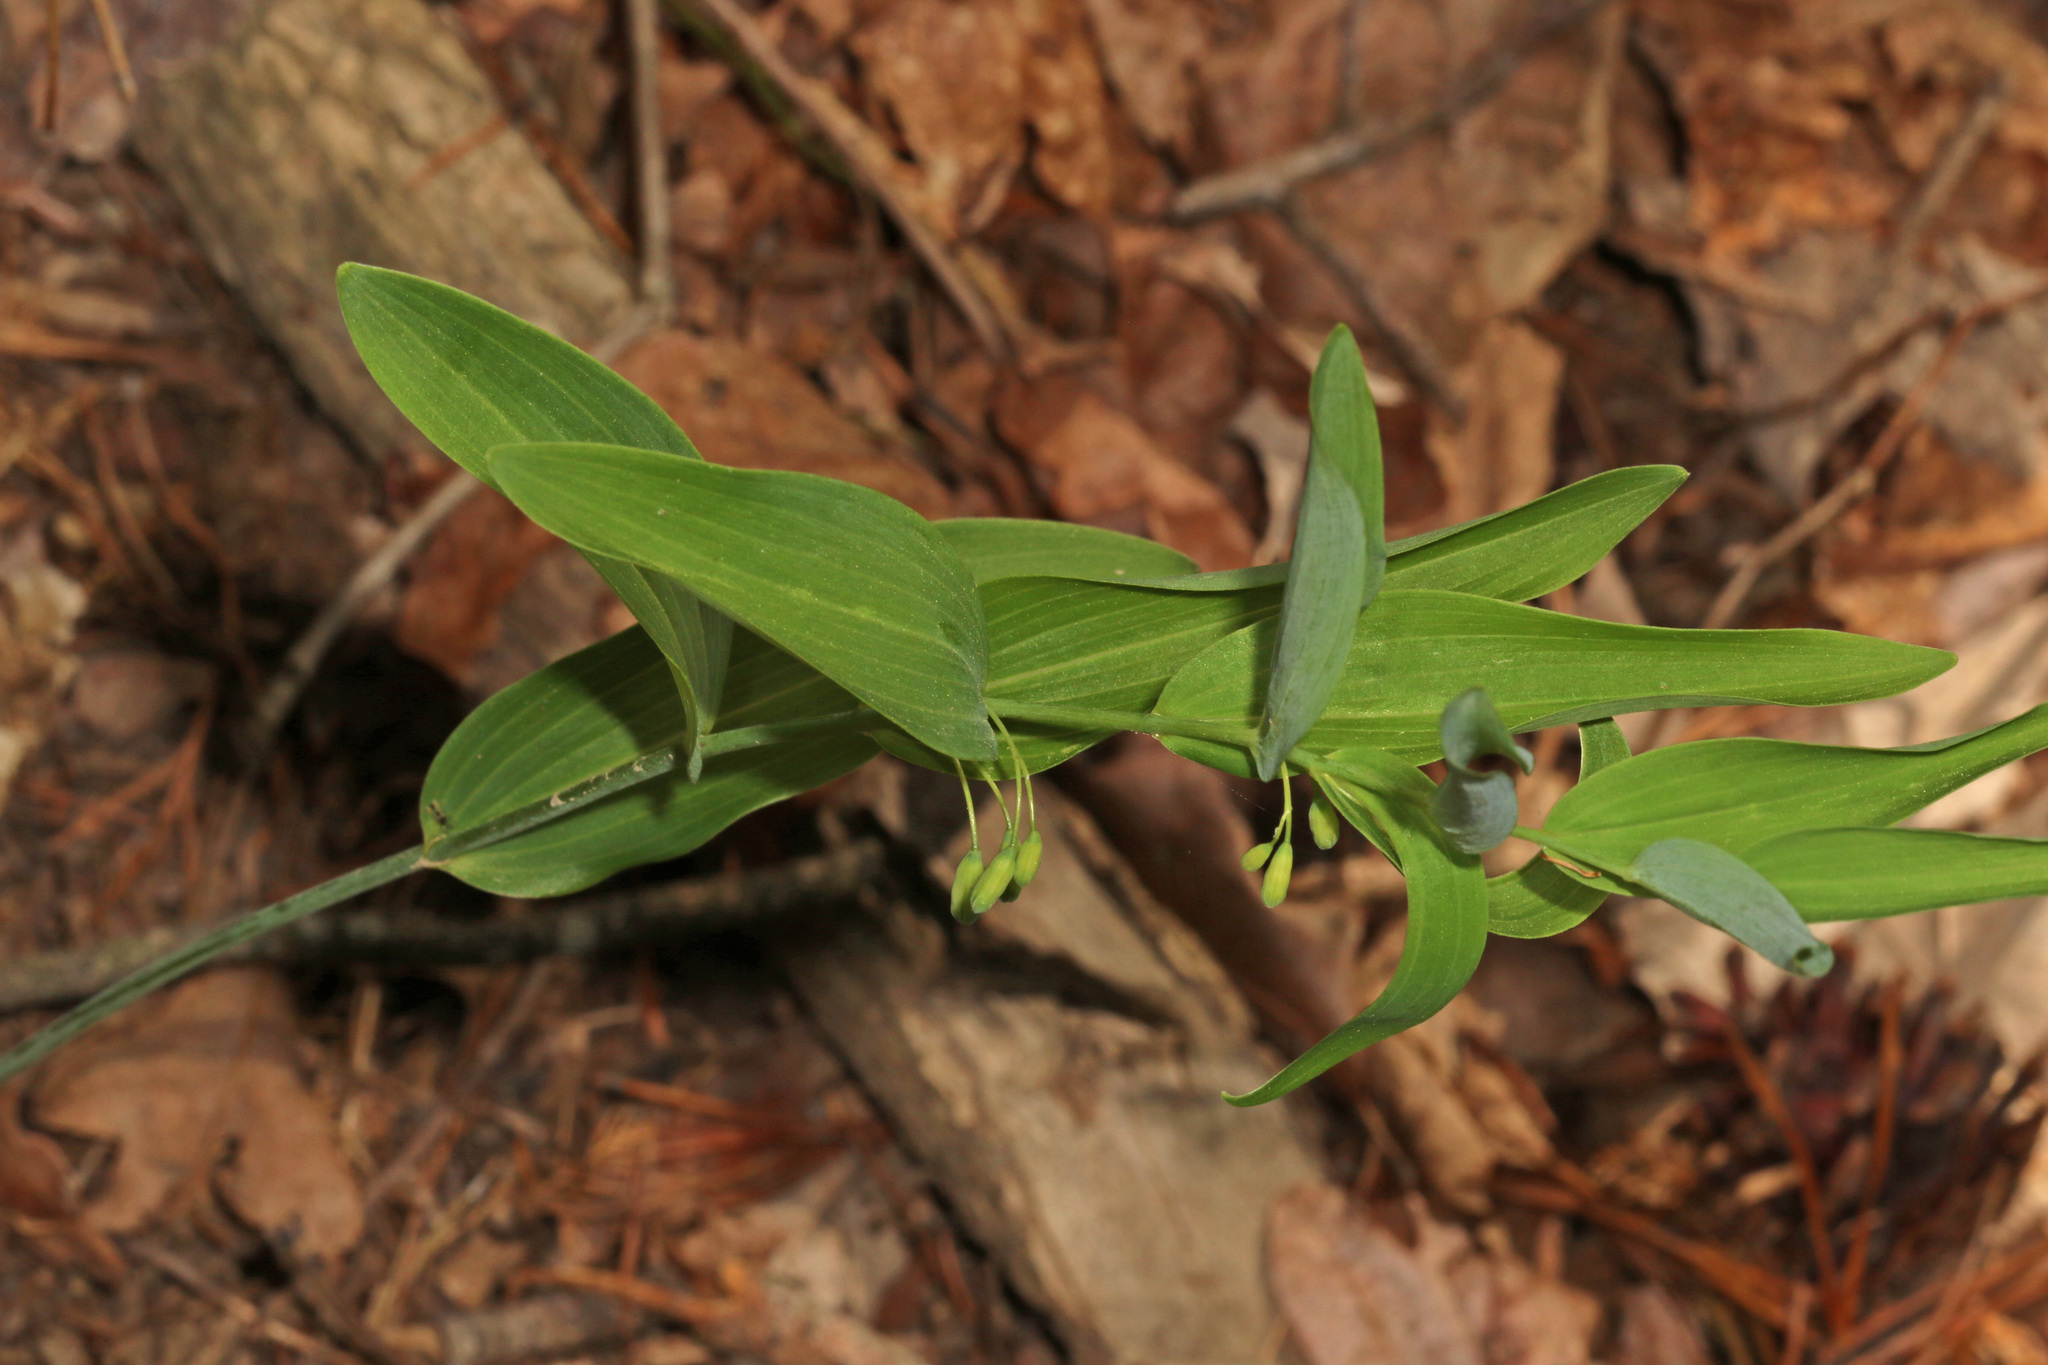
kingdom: Plantae
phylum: Tracheophyta
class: Liliopsida
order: Asparagales
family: Asparagaceae
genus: Polygonatum
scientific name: Polygonatum biflorum
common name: American solomon's-seal
